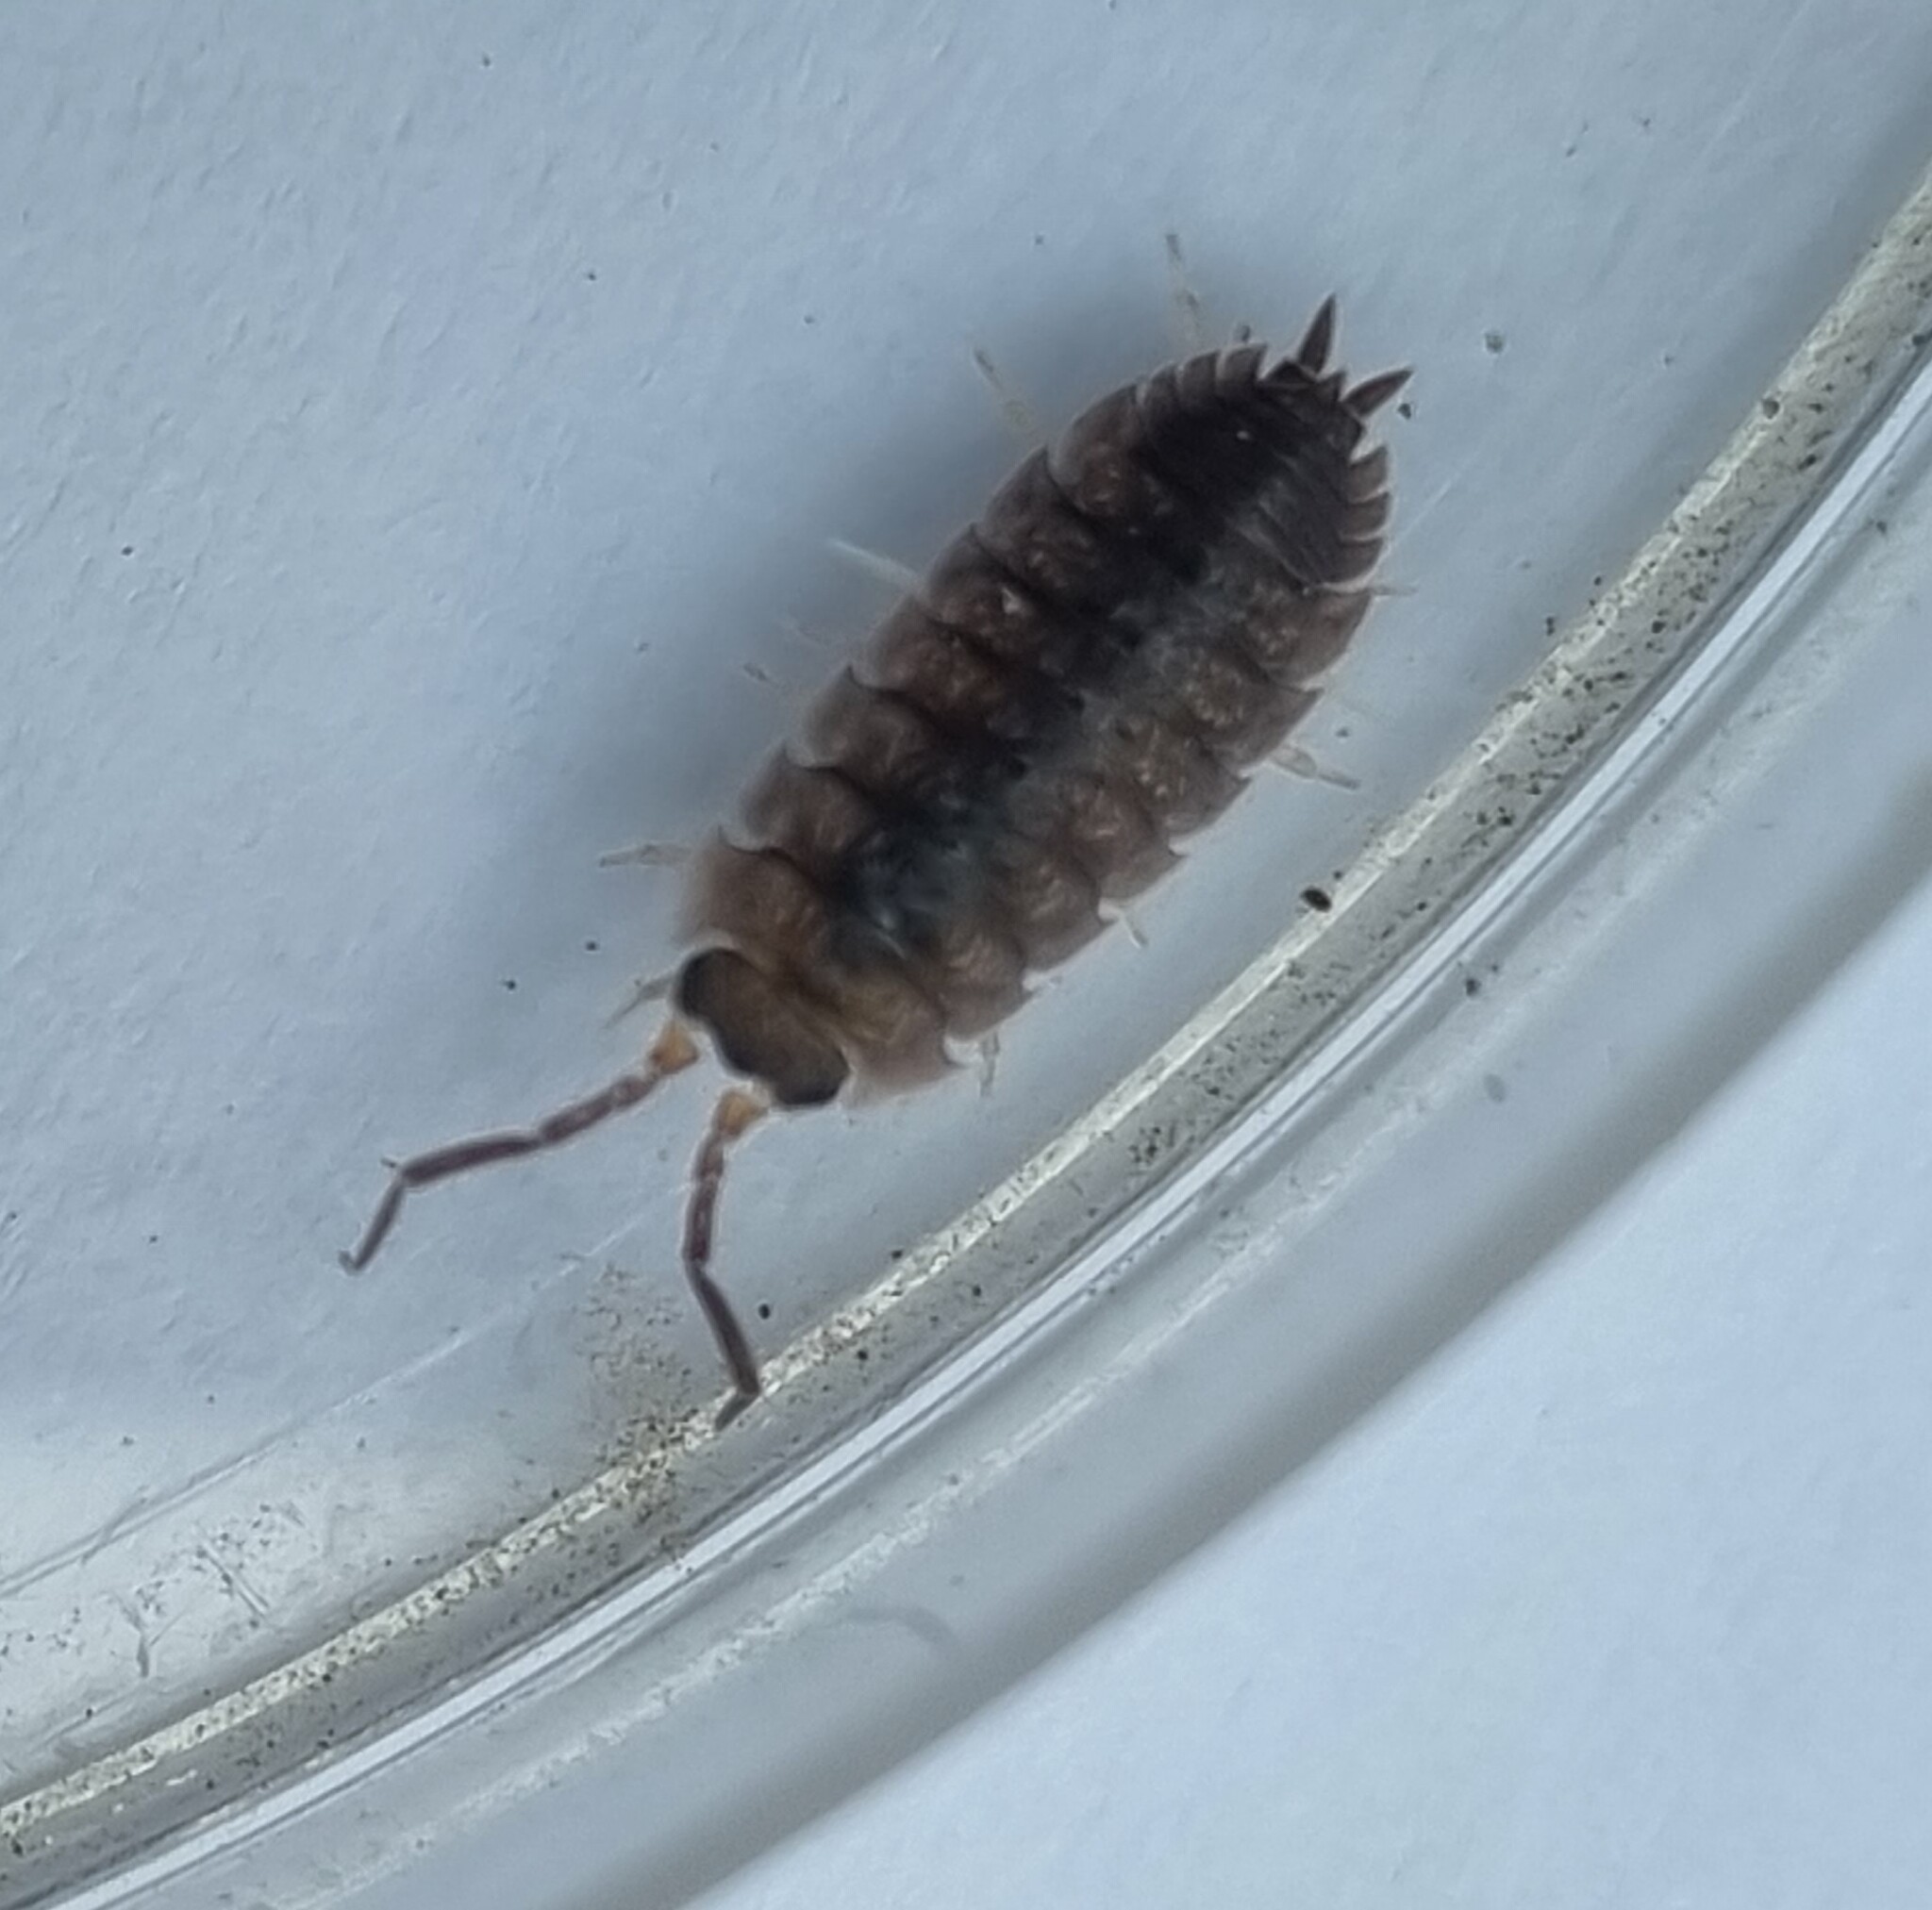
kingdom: Animalia
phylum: Arthropoda
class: Malacostraca
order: Isopoda
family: Porcellionidae
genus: Porcellio
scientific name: Porcellio scaber
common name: Common rough woodlouse
